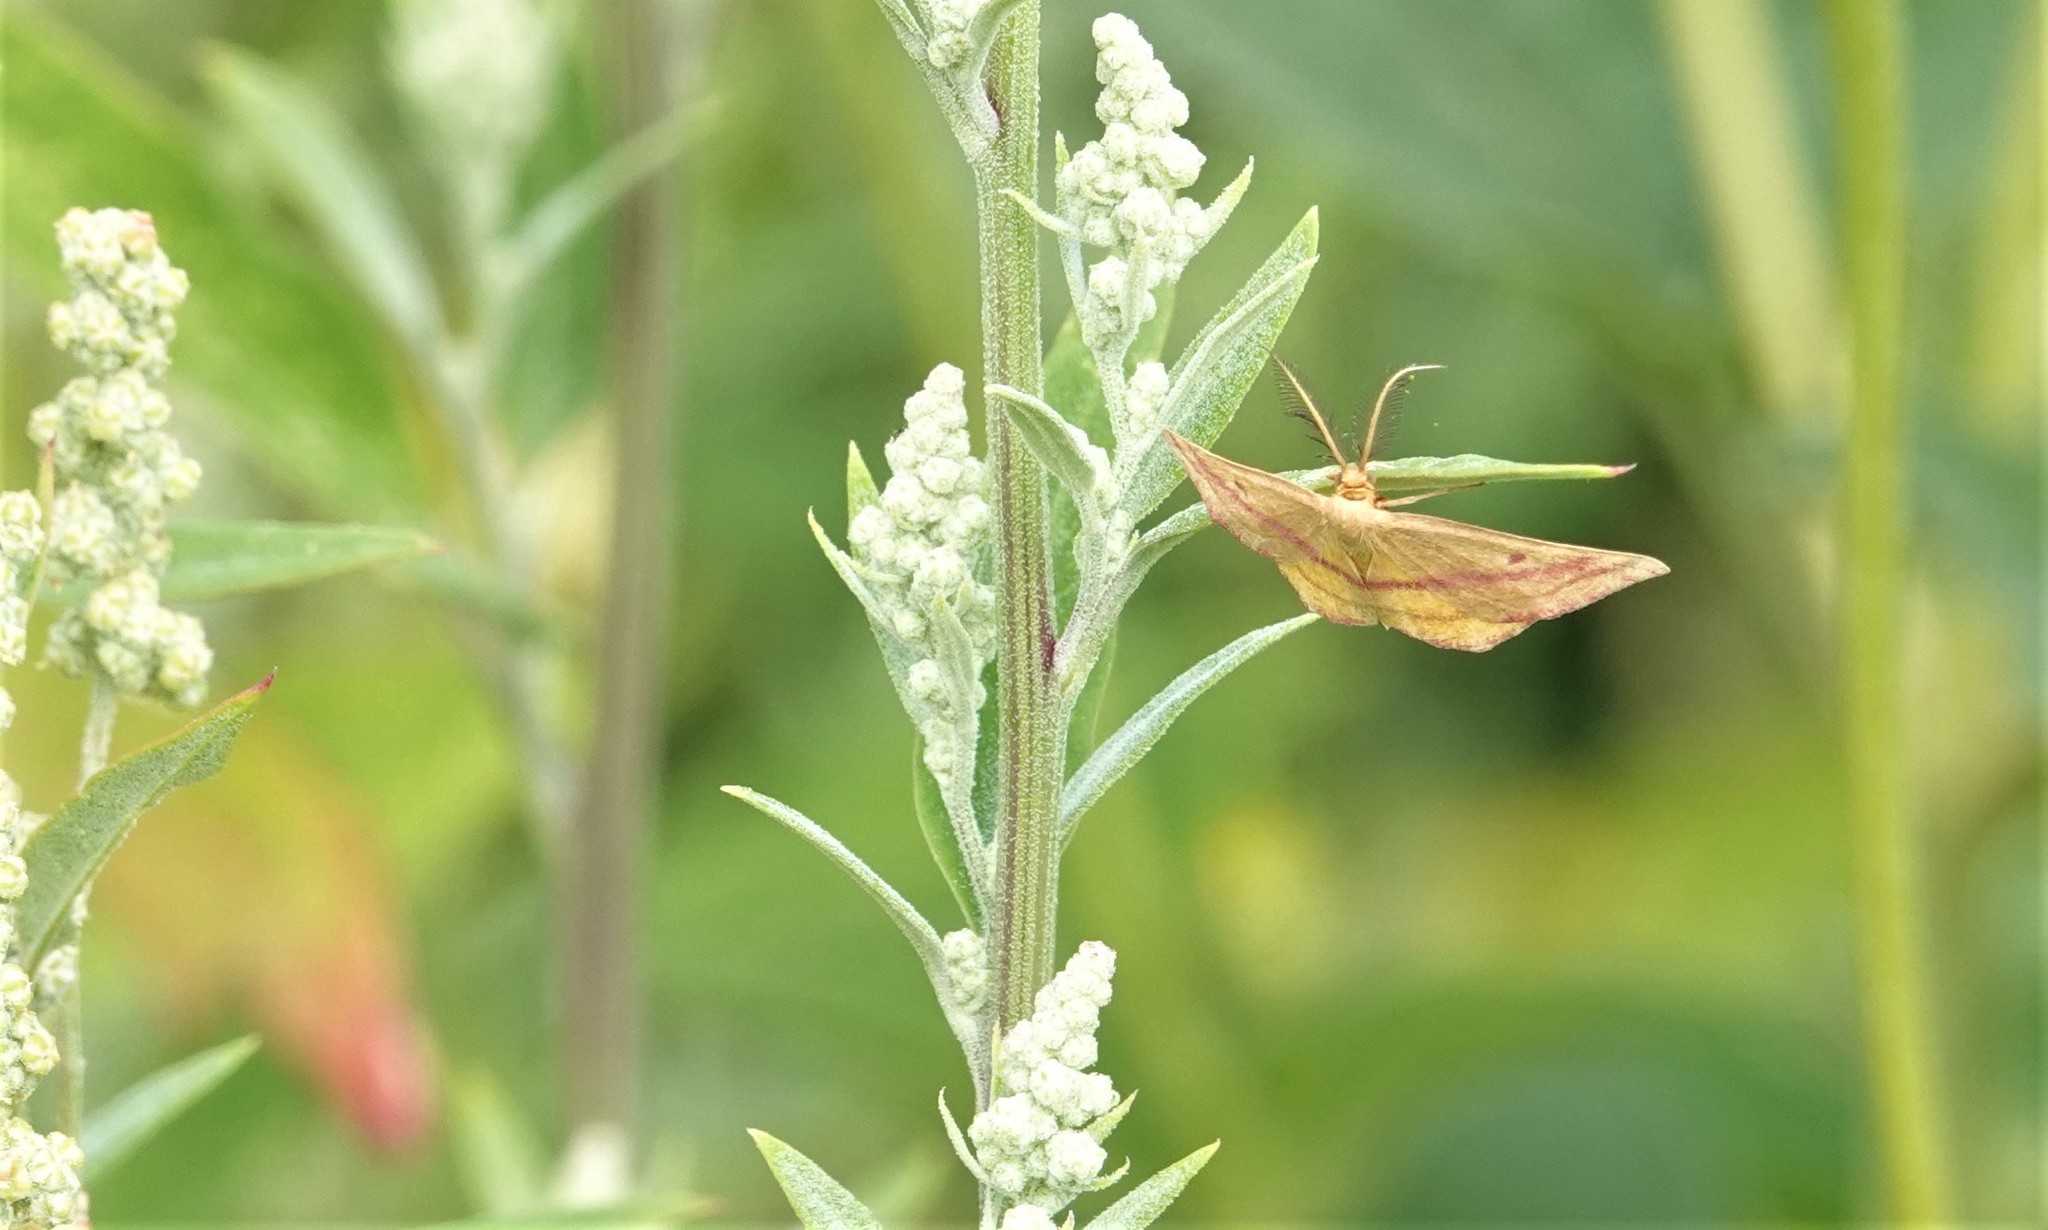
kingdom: Animalia
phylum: Arthropoda
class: Insecta
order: Lepidoptera
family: Geometridae
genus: Haematopis
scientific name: Haematopis grataria
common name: Chickweed geometer
